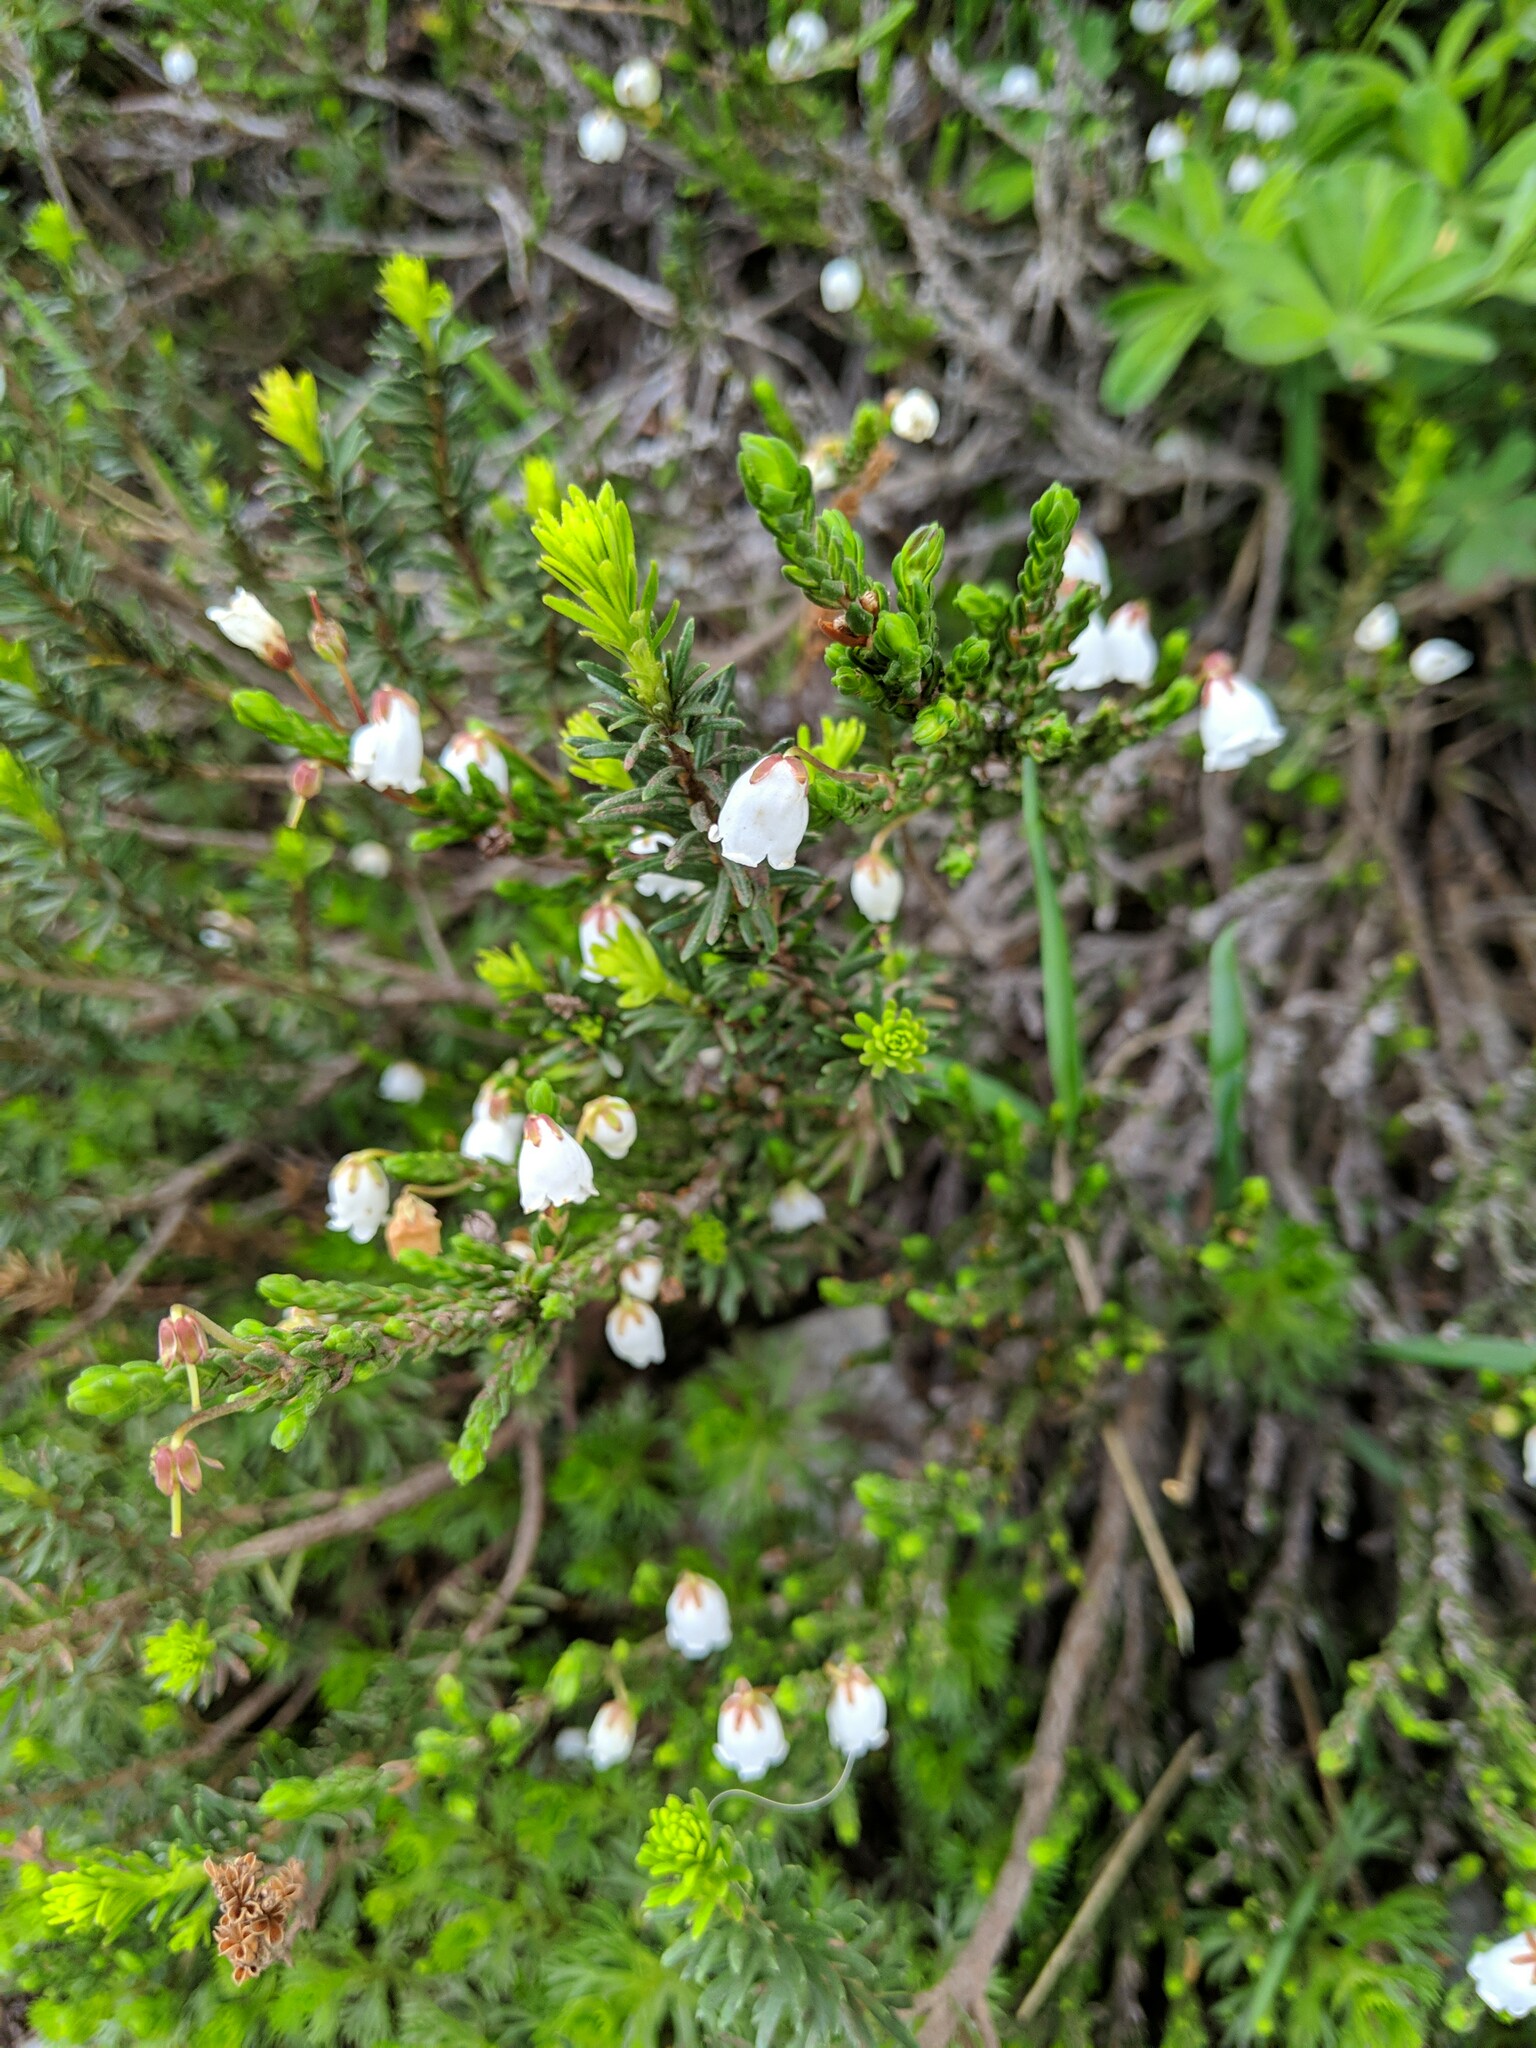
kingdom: Plantae
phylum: Tracheophyta
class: Magnoliopsida
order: Ericales
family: Ericaceae
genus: Cassiope
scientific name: Cassiope mertensiana
